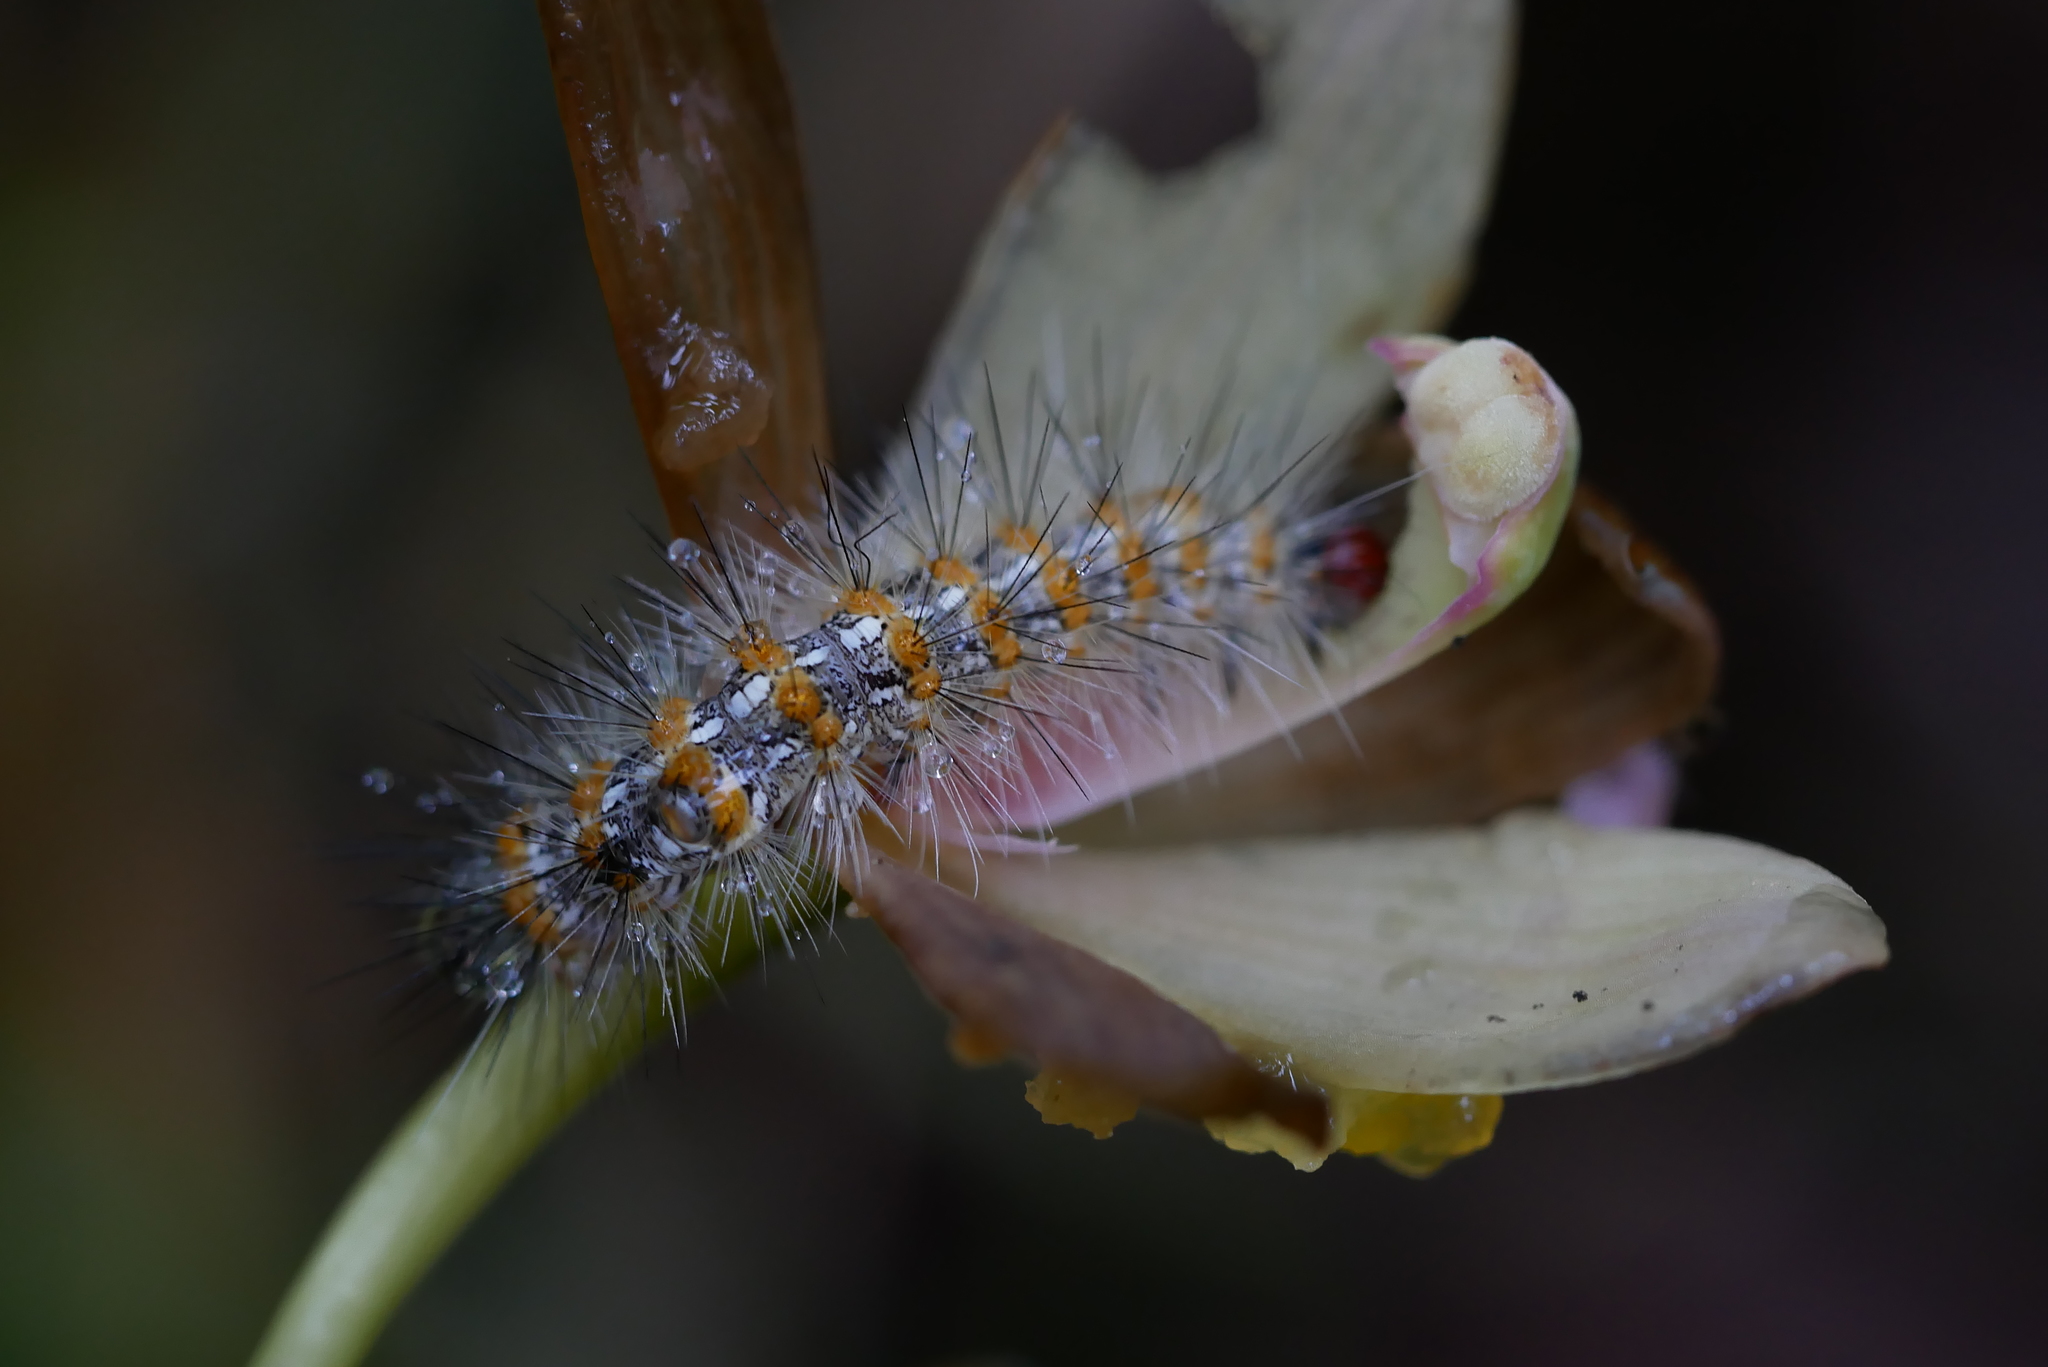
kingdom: Animalia
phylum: Arthropoda
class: Insecta
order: Lepidoptera
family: Erebidae
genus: Lemyra
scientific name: Lemyra imparilis
